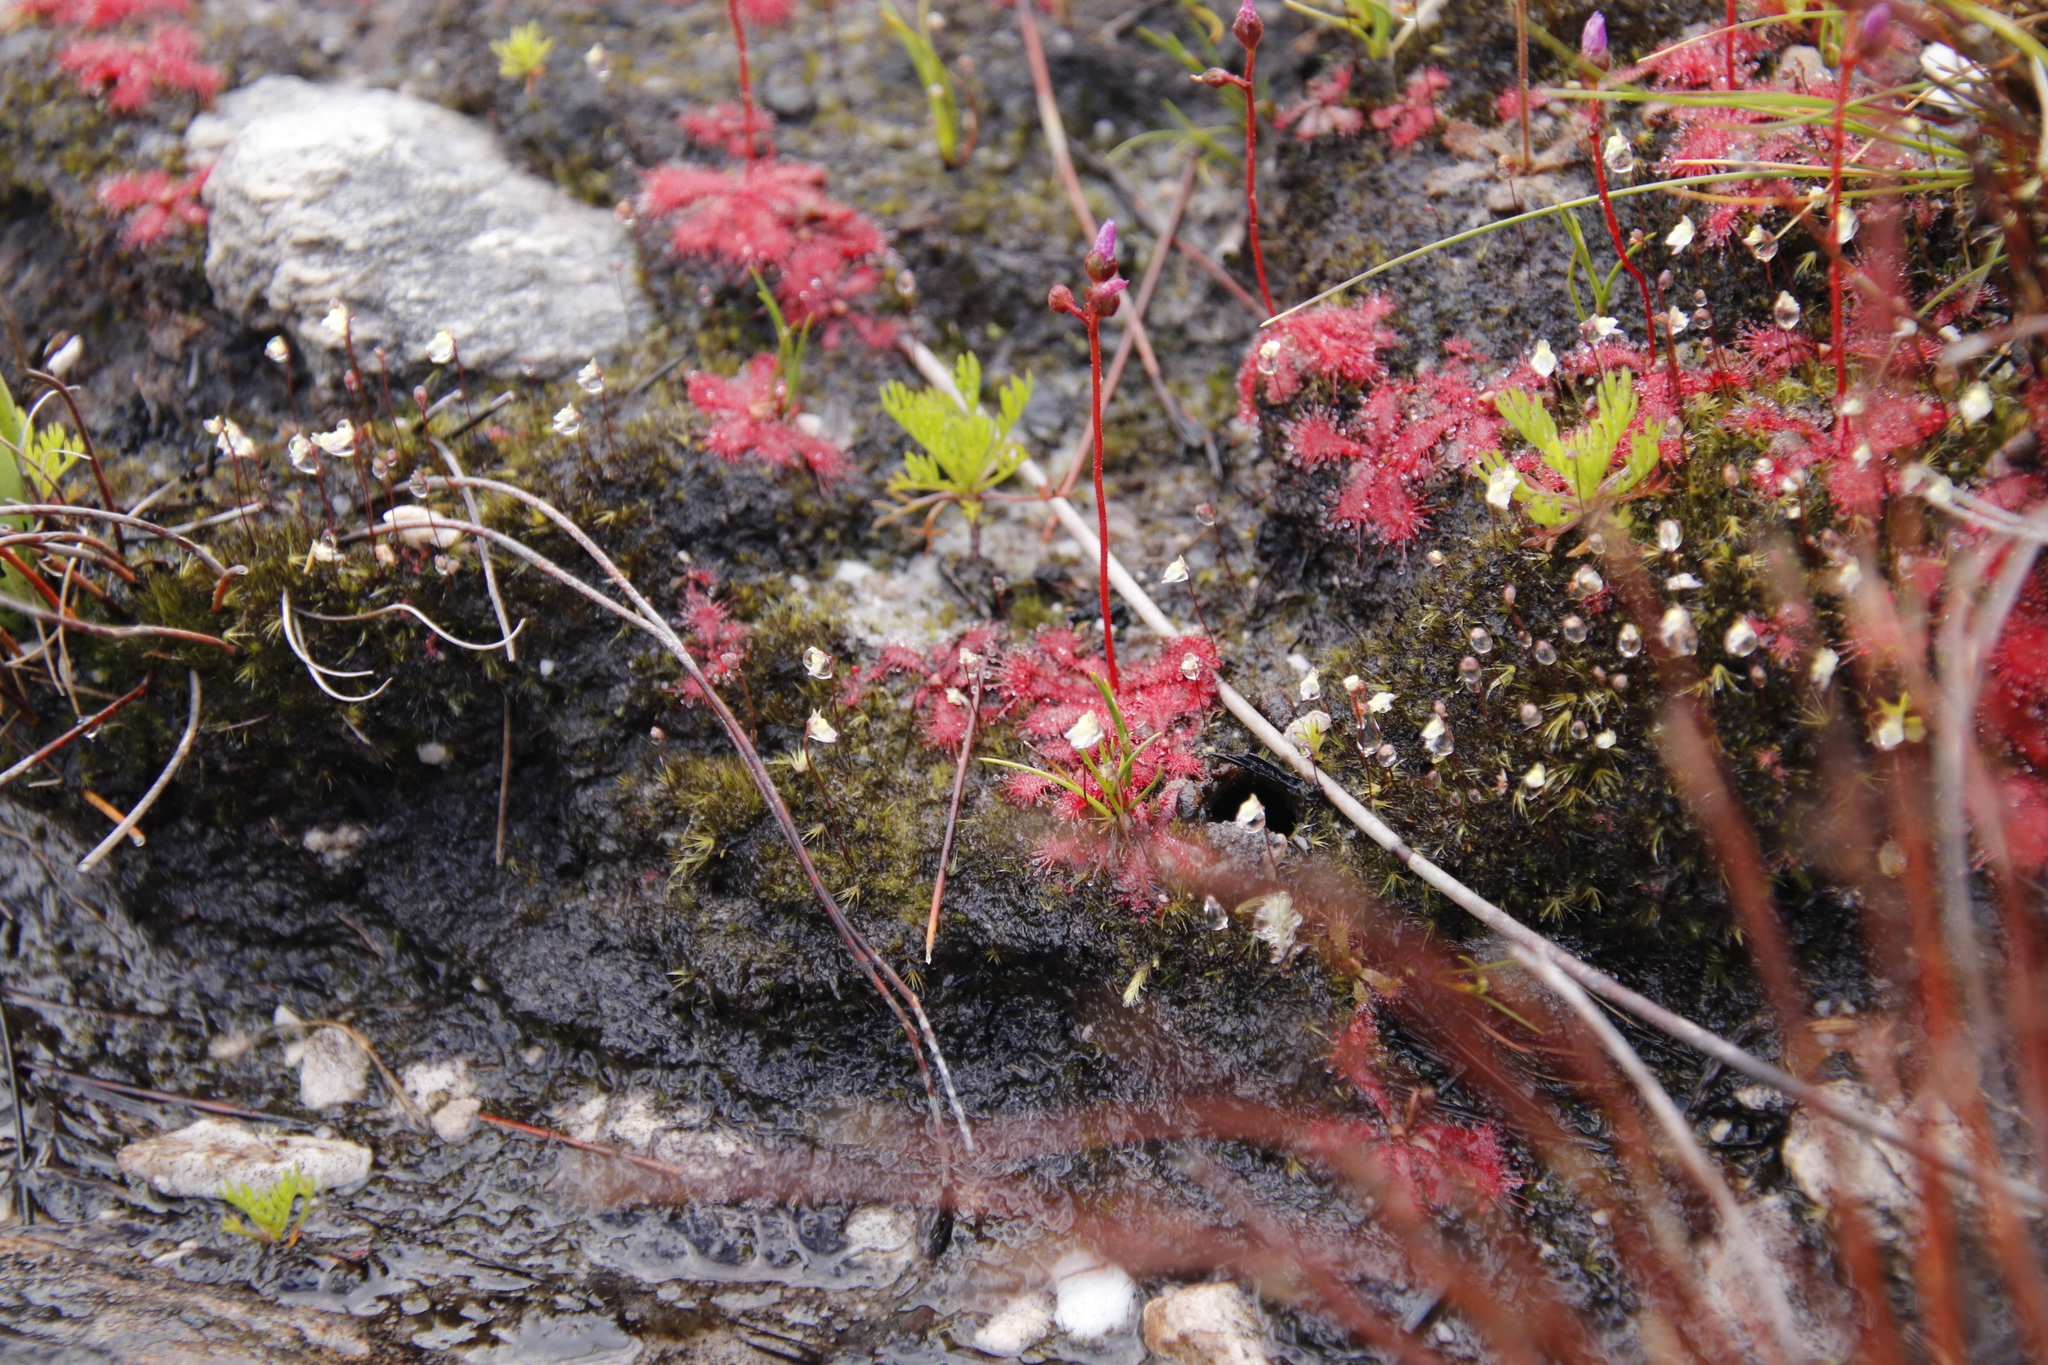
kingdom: Plantae
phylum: Tracheophyta
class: Magnoliopsida
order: Caryophyllales
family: Droseraceae
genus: Drosera
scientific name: Drosera trinervia
